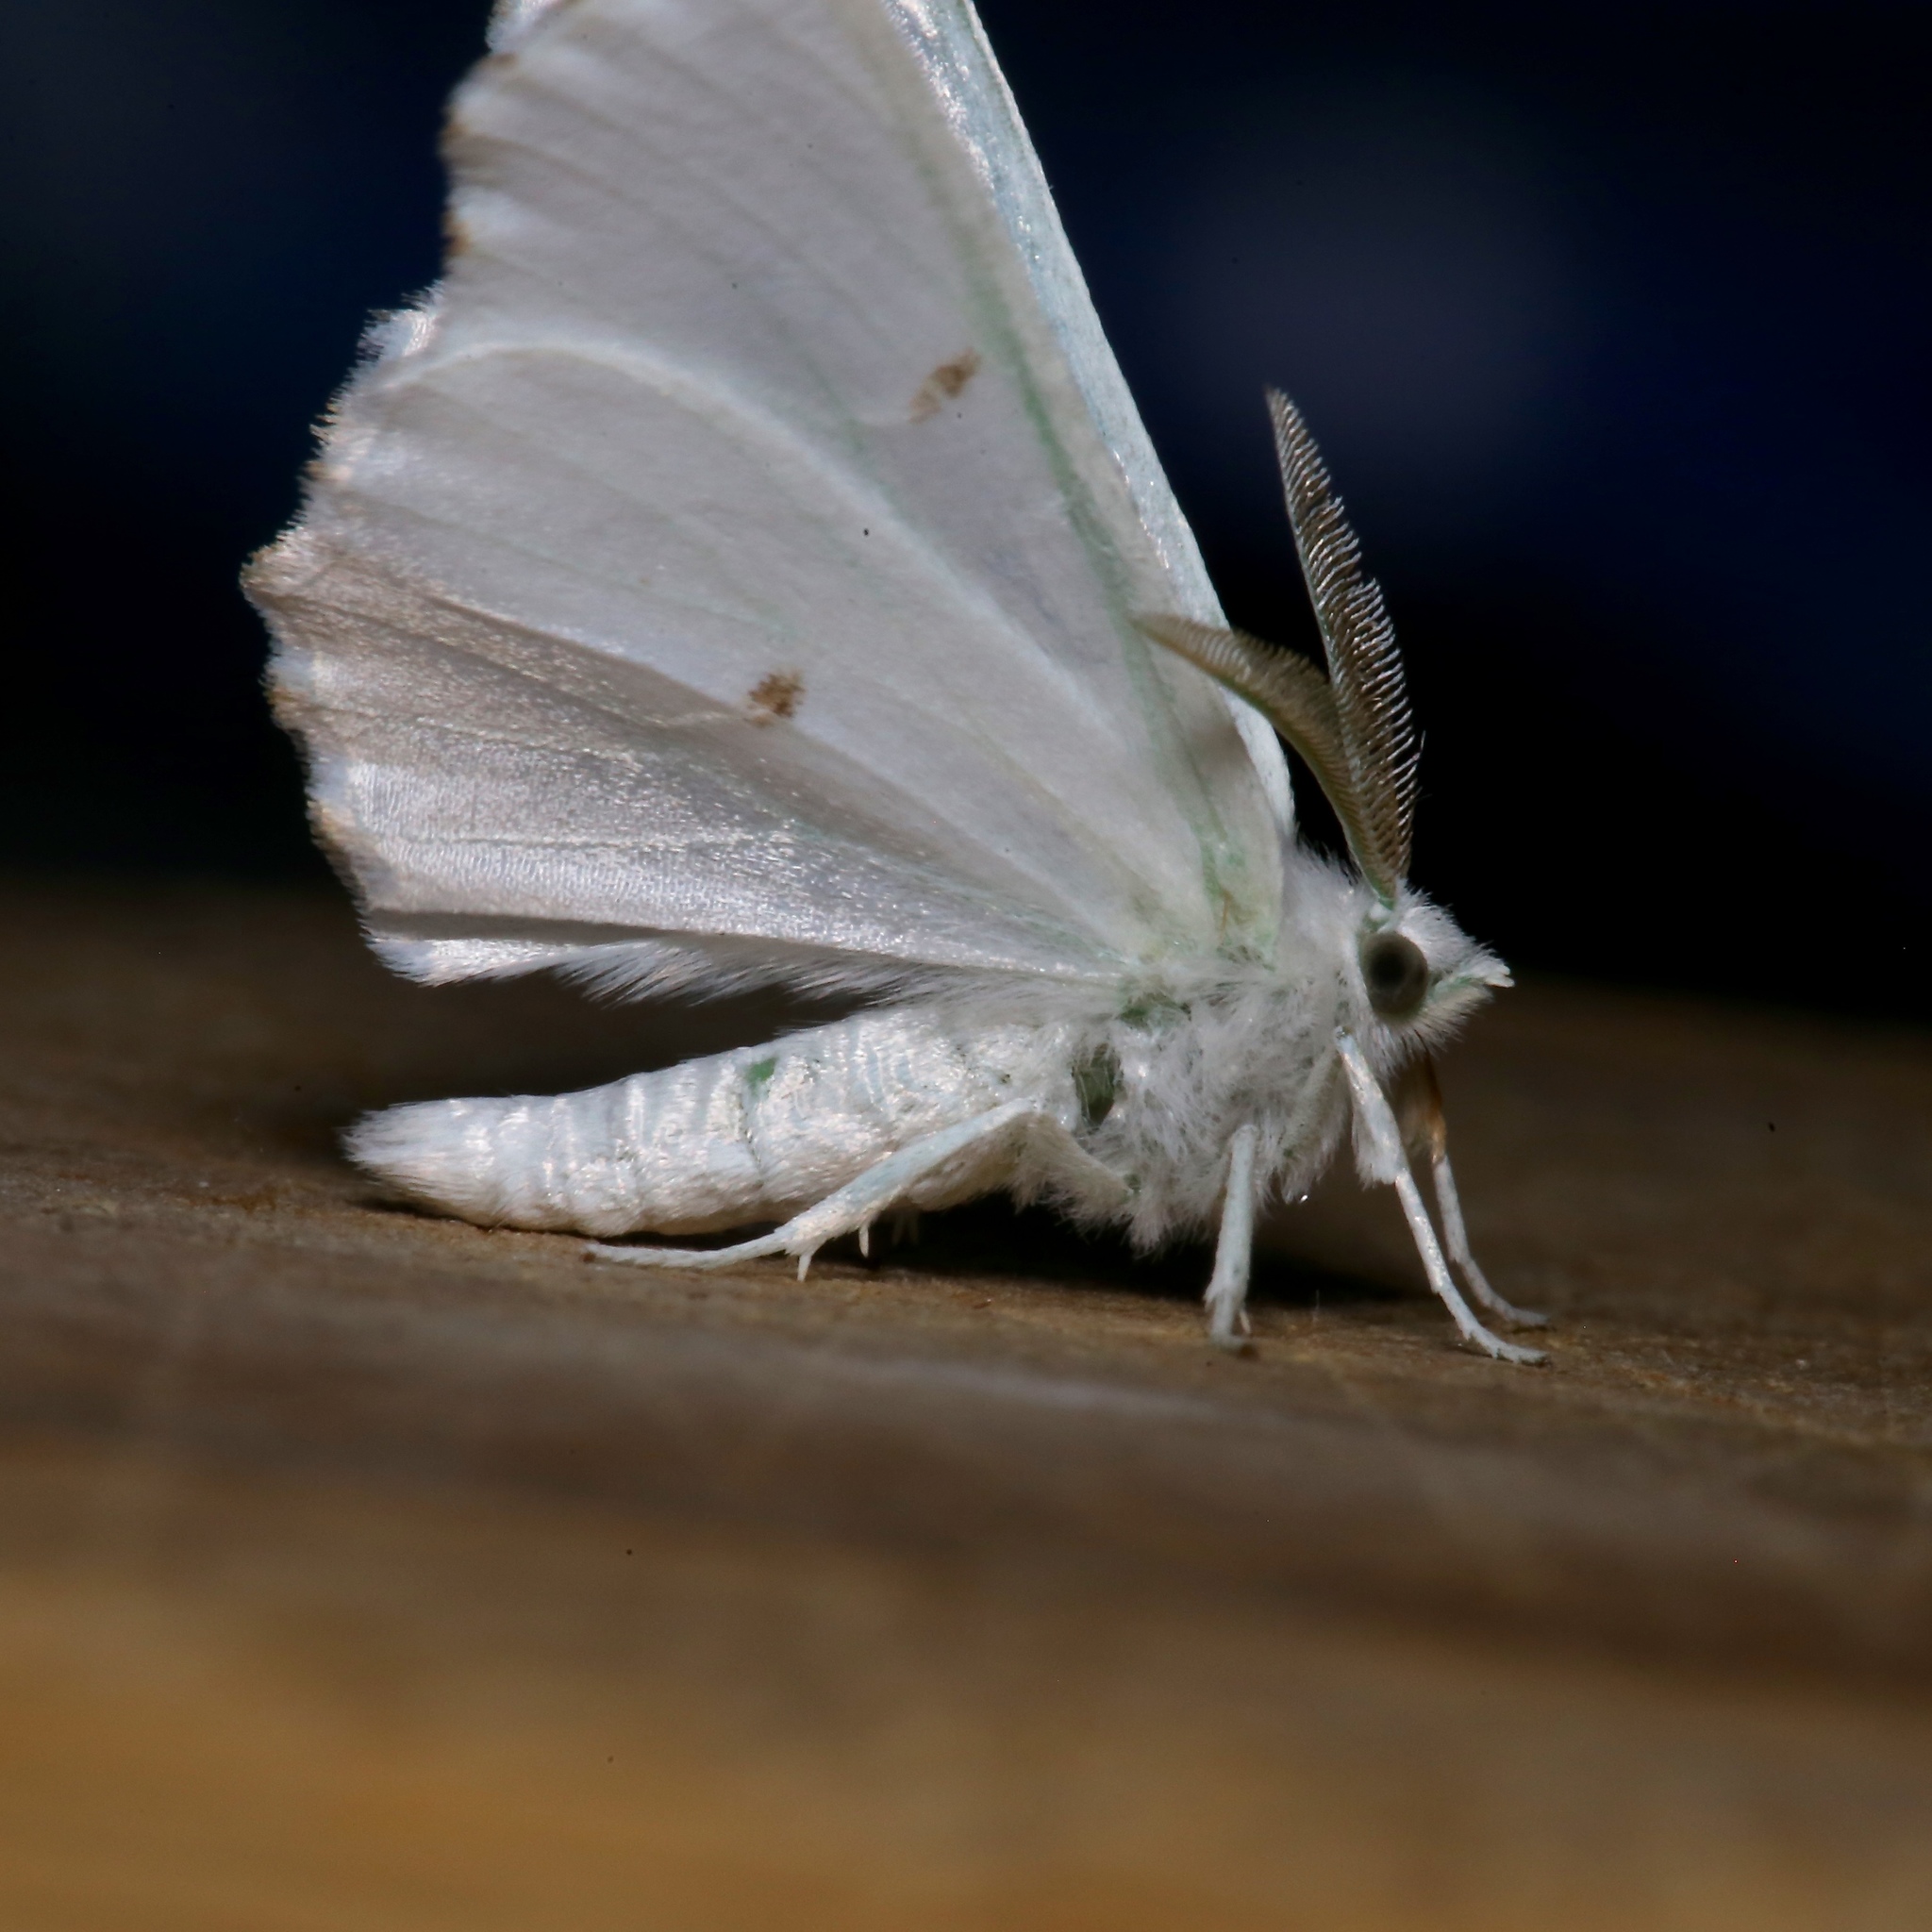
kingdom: Animalia
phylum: Arthropoda
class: Insecta
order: Lepidoptera
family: Geometridae
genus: Ennomos
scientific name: Ennomos subsignaria
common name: Elm spanworm
